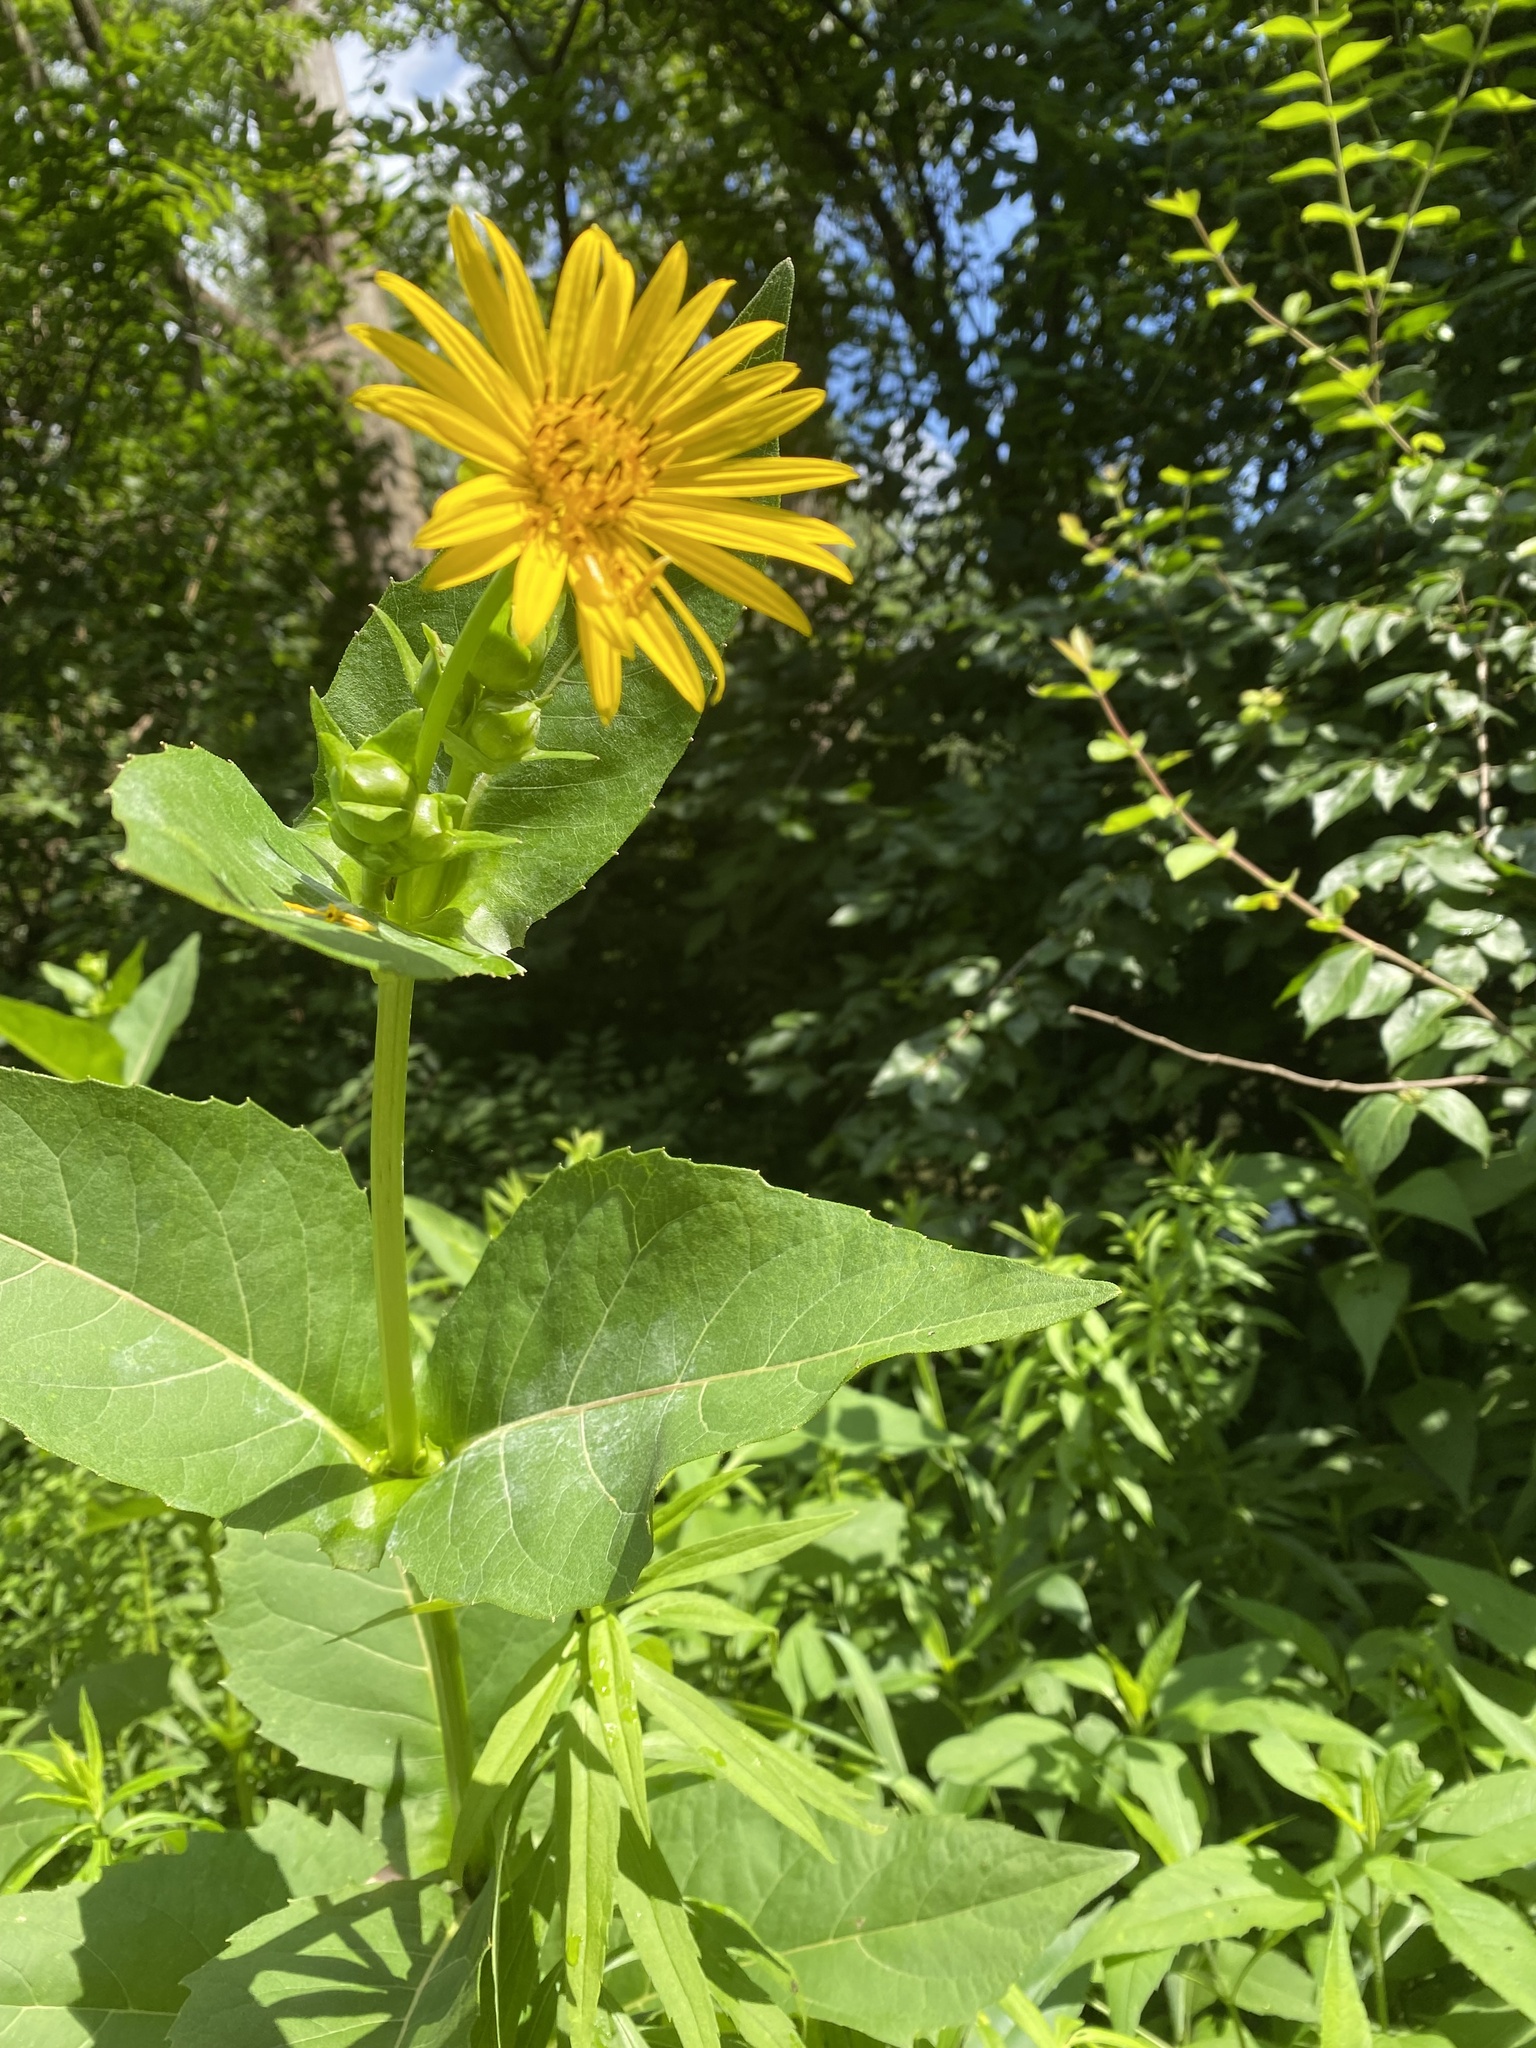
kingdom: Plantae
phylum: Tracheophyta
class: Magnoliopsida
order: Asterales
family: Asteraceae
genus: Silphium
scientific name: Silphium perfoliatum
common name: Cup-plant
